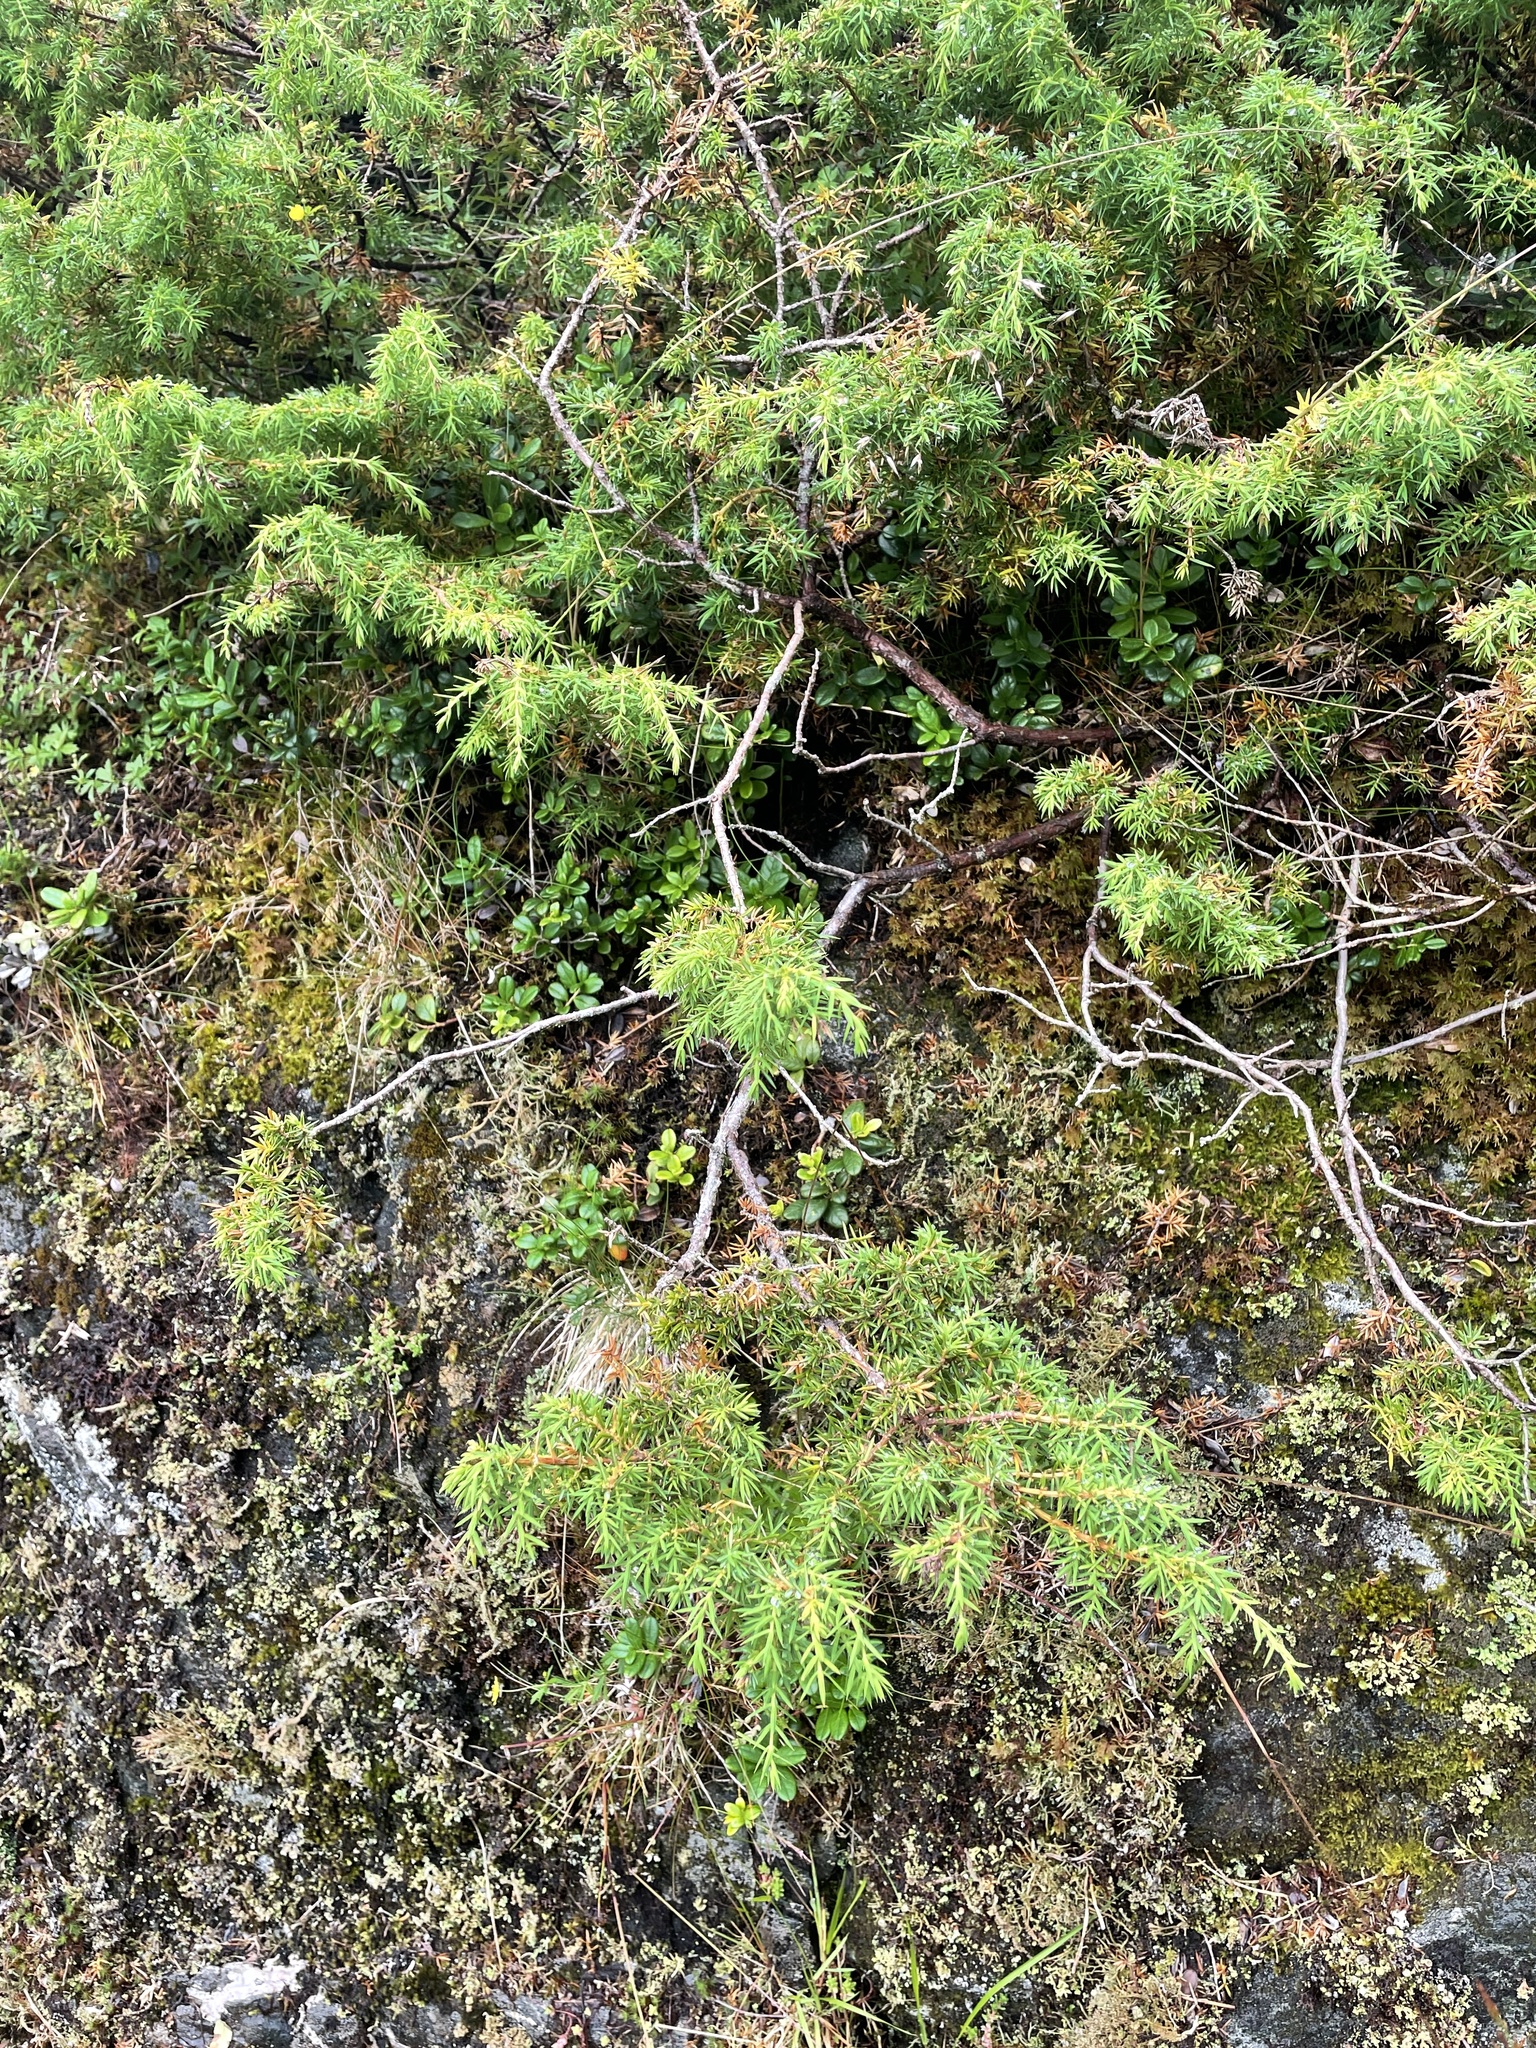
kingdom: Plantae
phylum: Tracheophyta
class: Pinopsida
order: Pinales
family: Cupressaceae
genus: Juniperus
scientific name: Juniperus communis
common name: Common juniper
